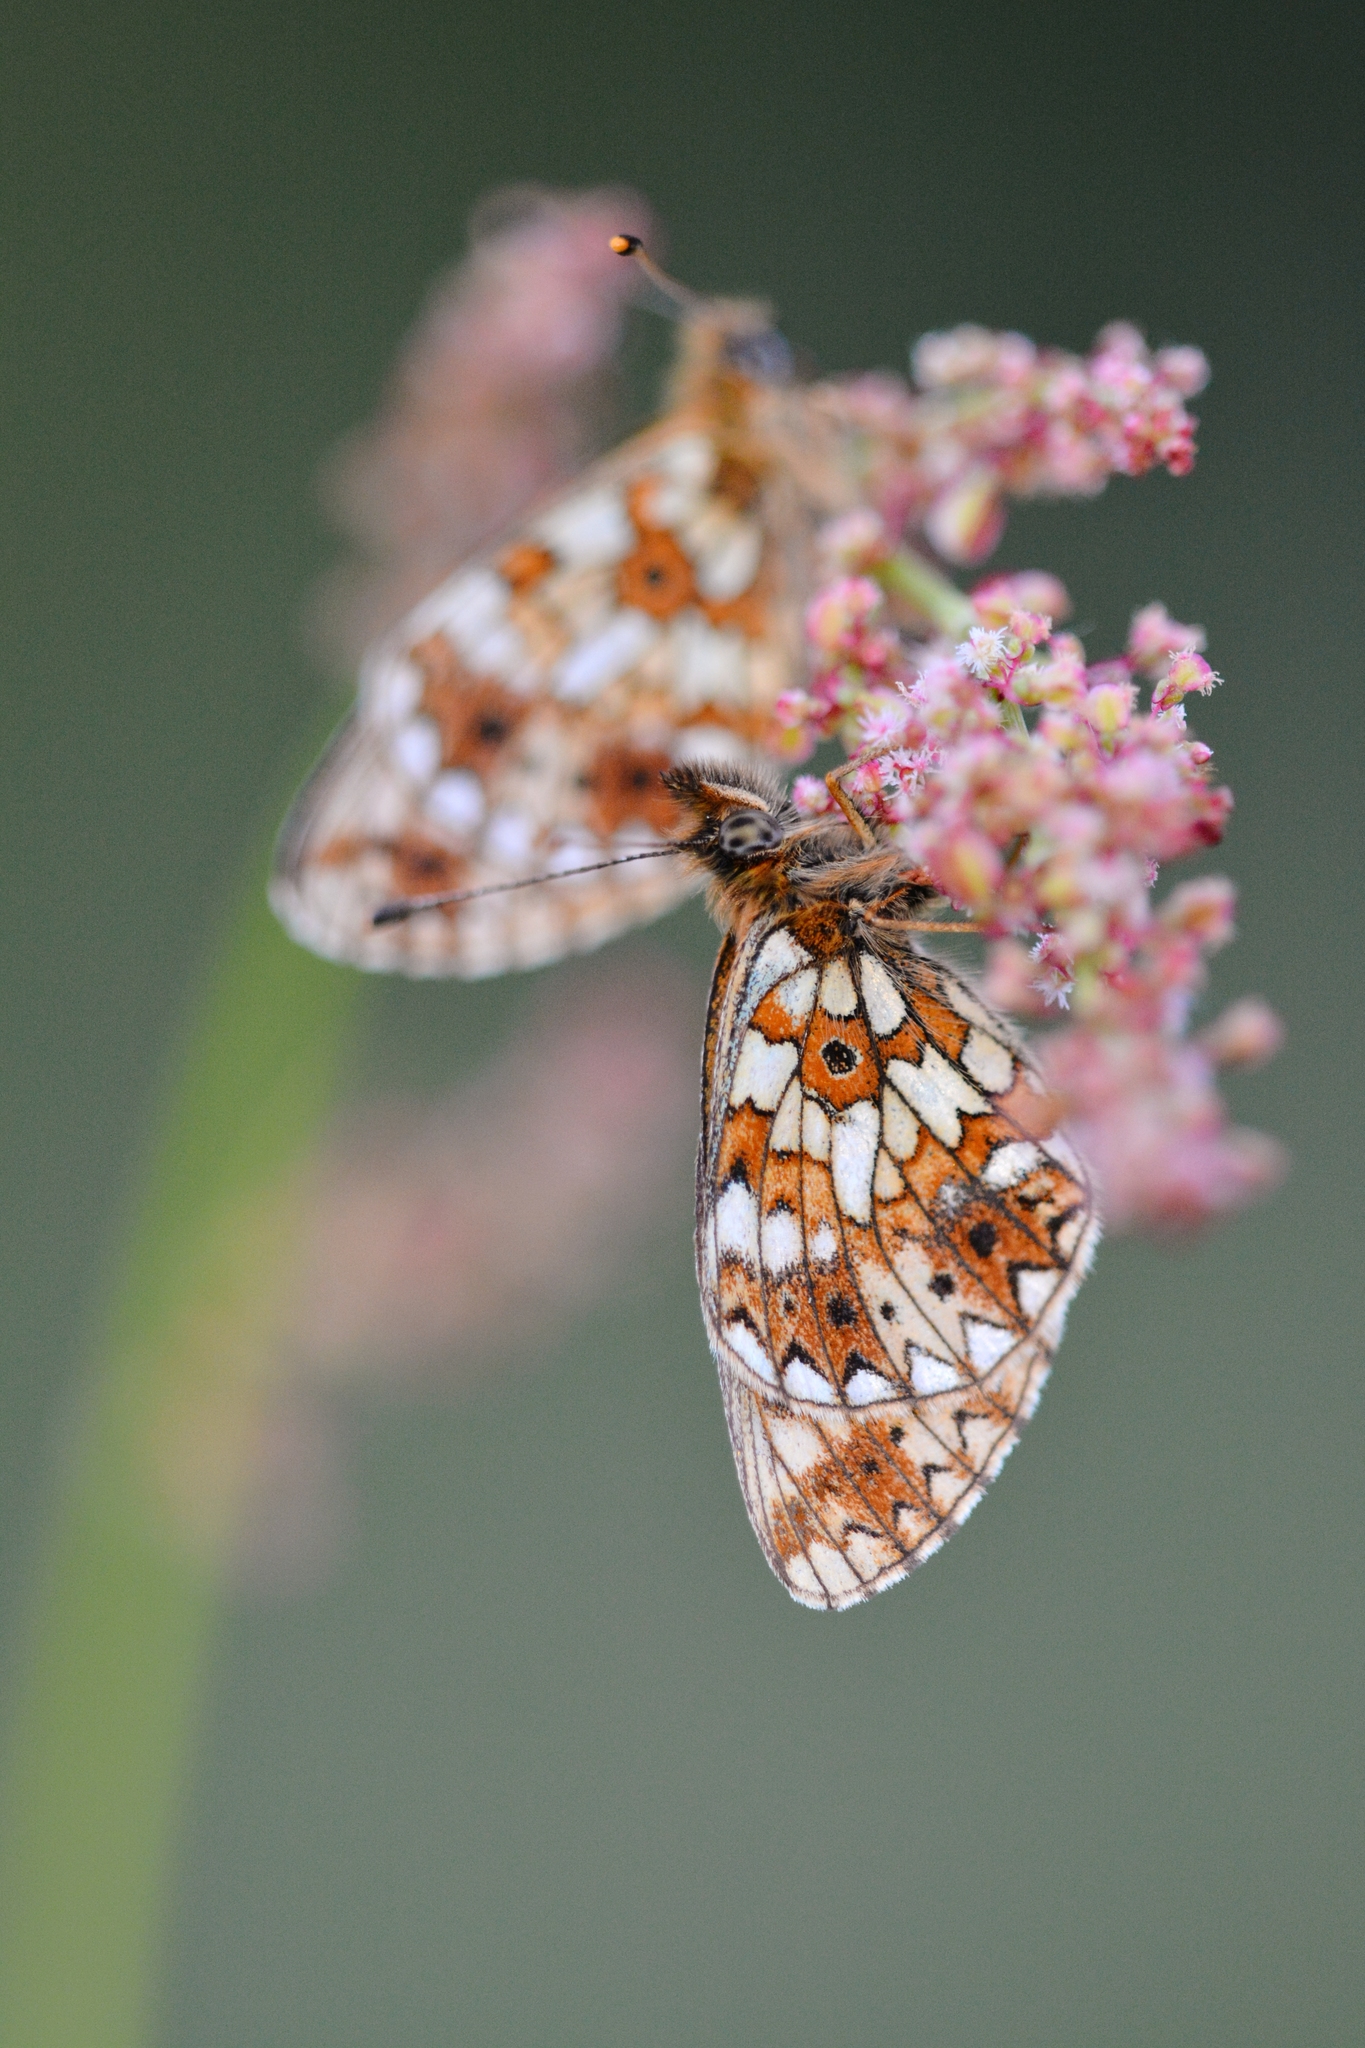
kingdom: Animalia
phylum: Arthropoda
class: Insecta
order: Lepidoptera
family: Nymphalidae
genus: Boloria
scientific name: Boloria selene
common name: Small pearl-bordered fritillary
